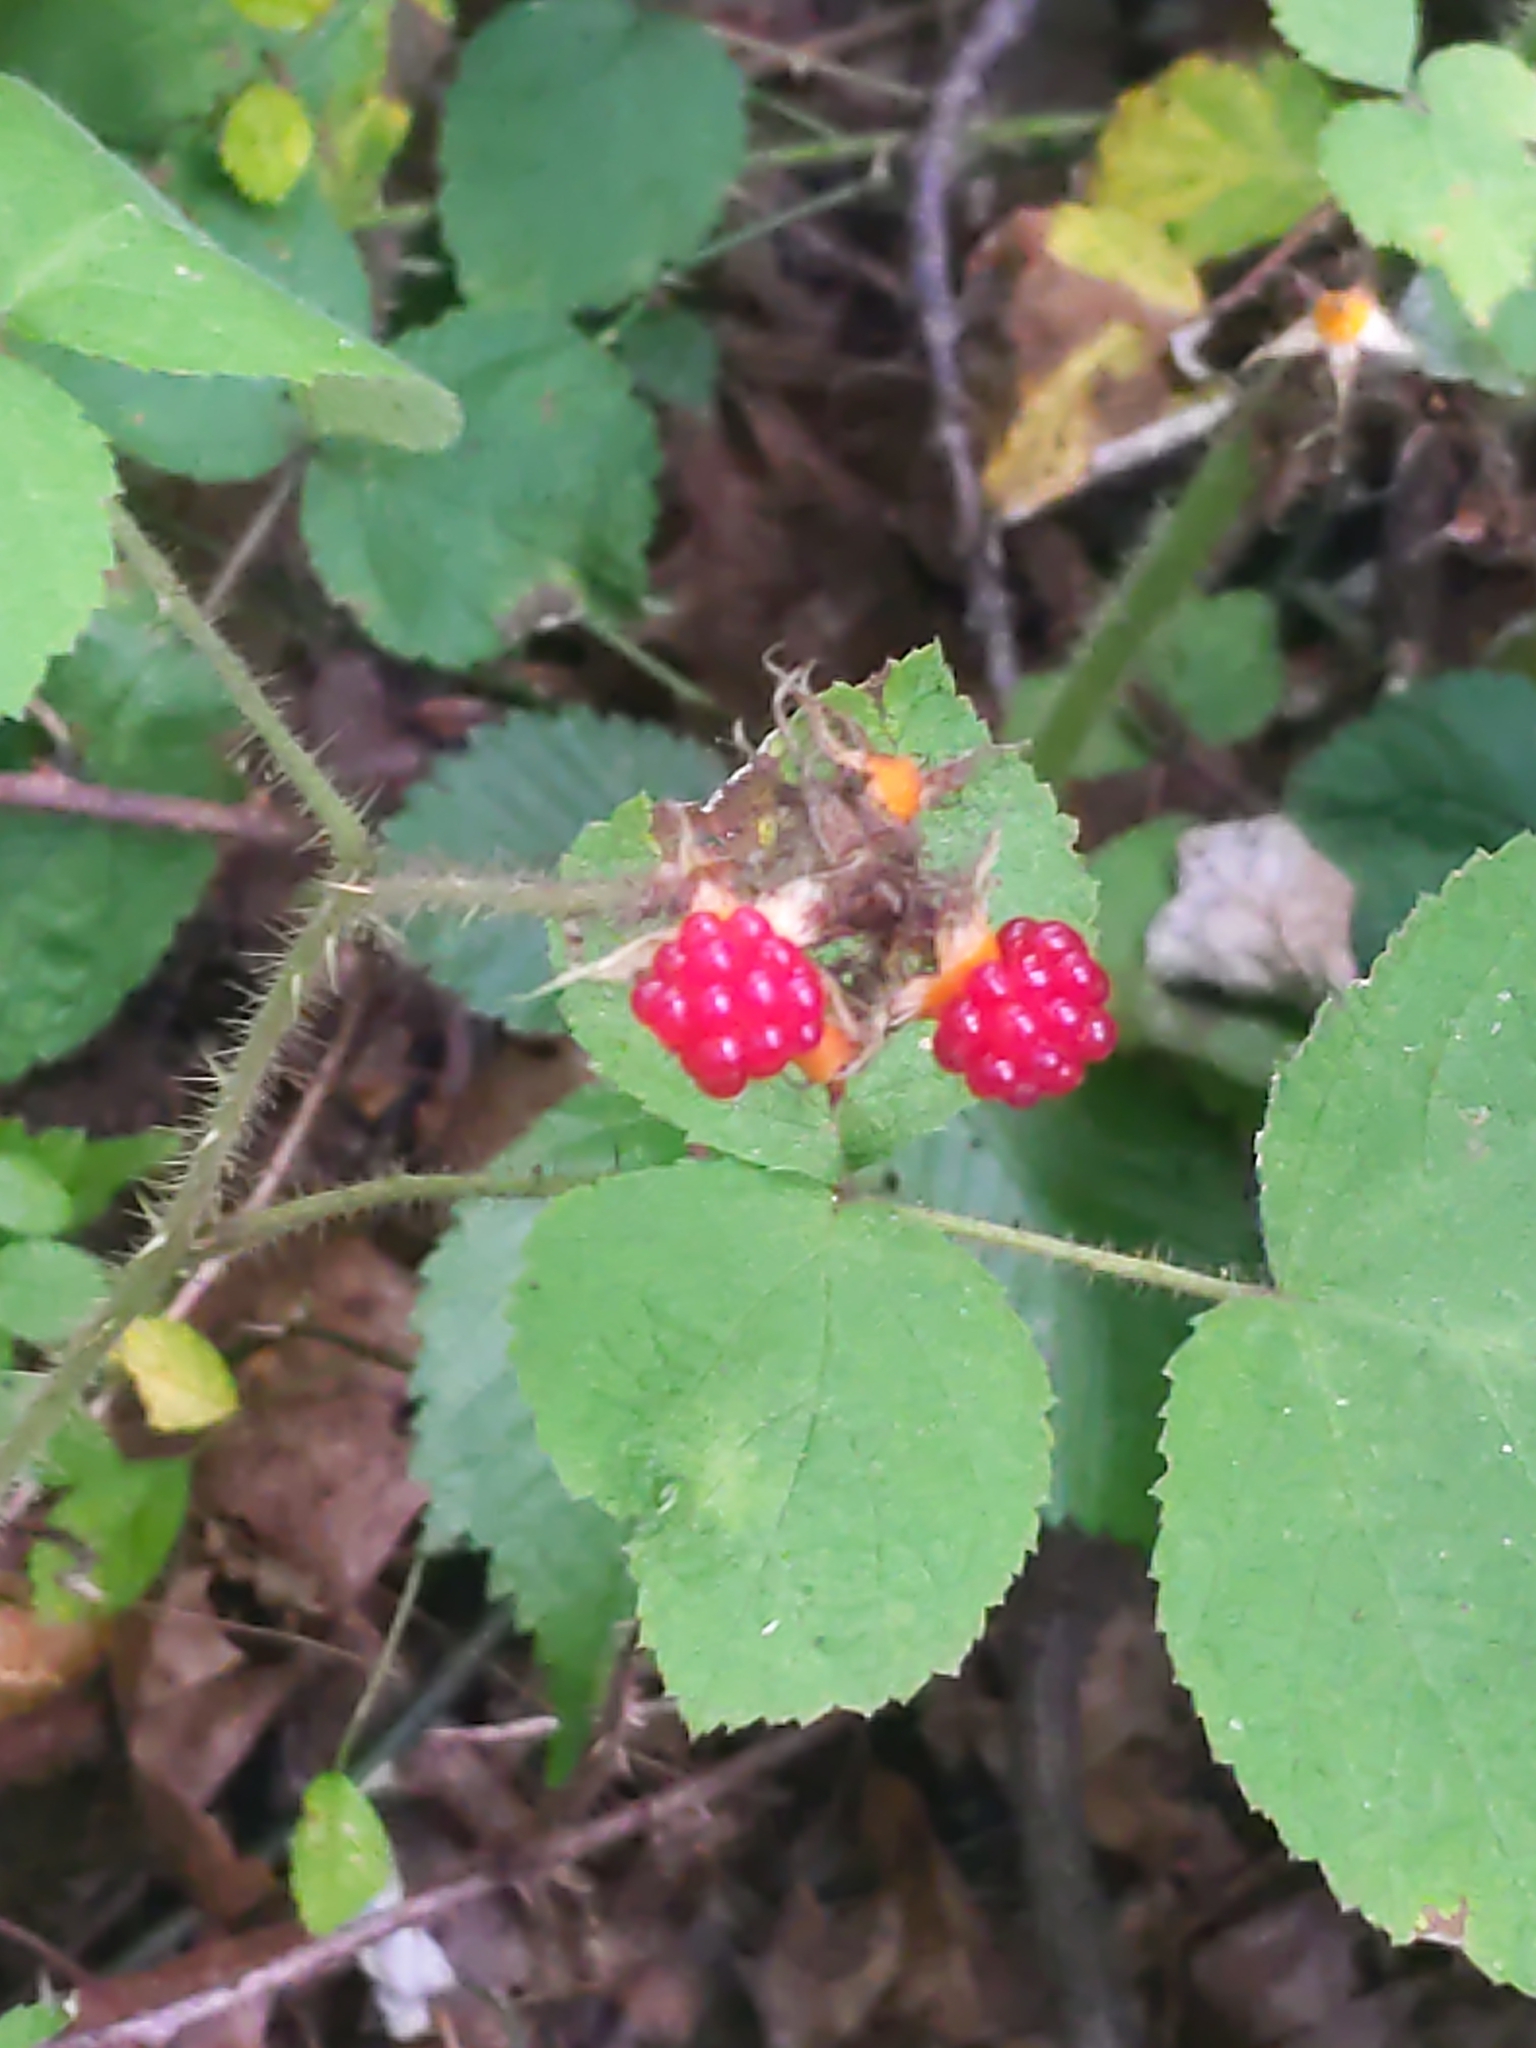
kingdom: Plantae
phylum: Tracheophyta
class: Magnoliopsida
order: Rosales
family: Rosaceae
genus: Rubus
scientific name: Rubus phoenicolasius
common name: Japanese wineberry
